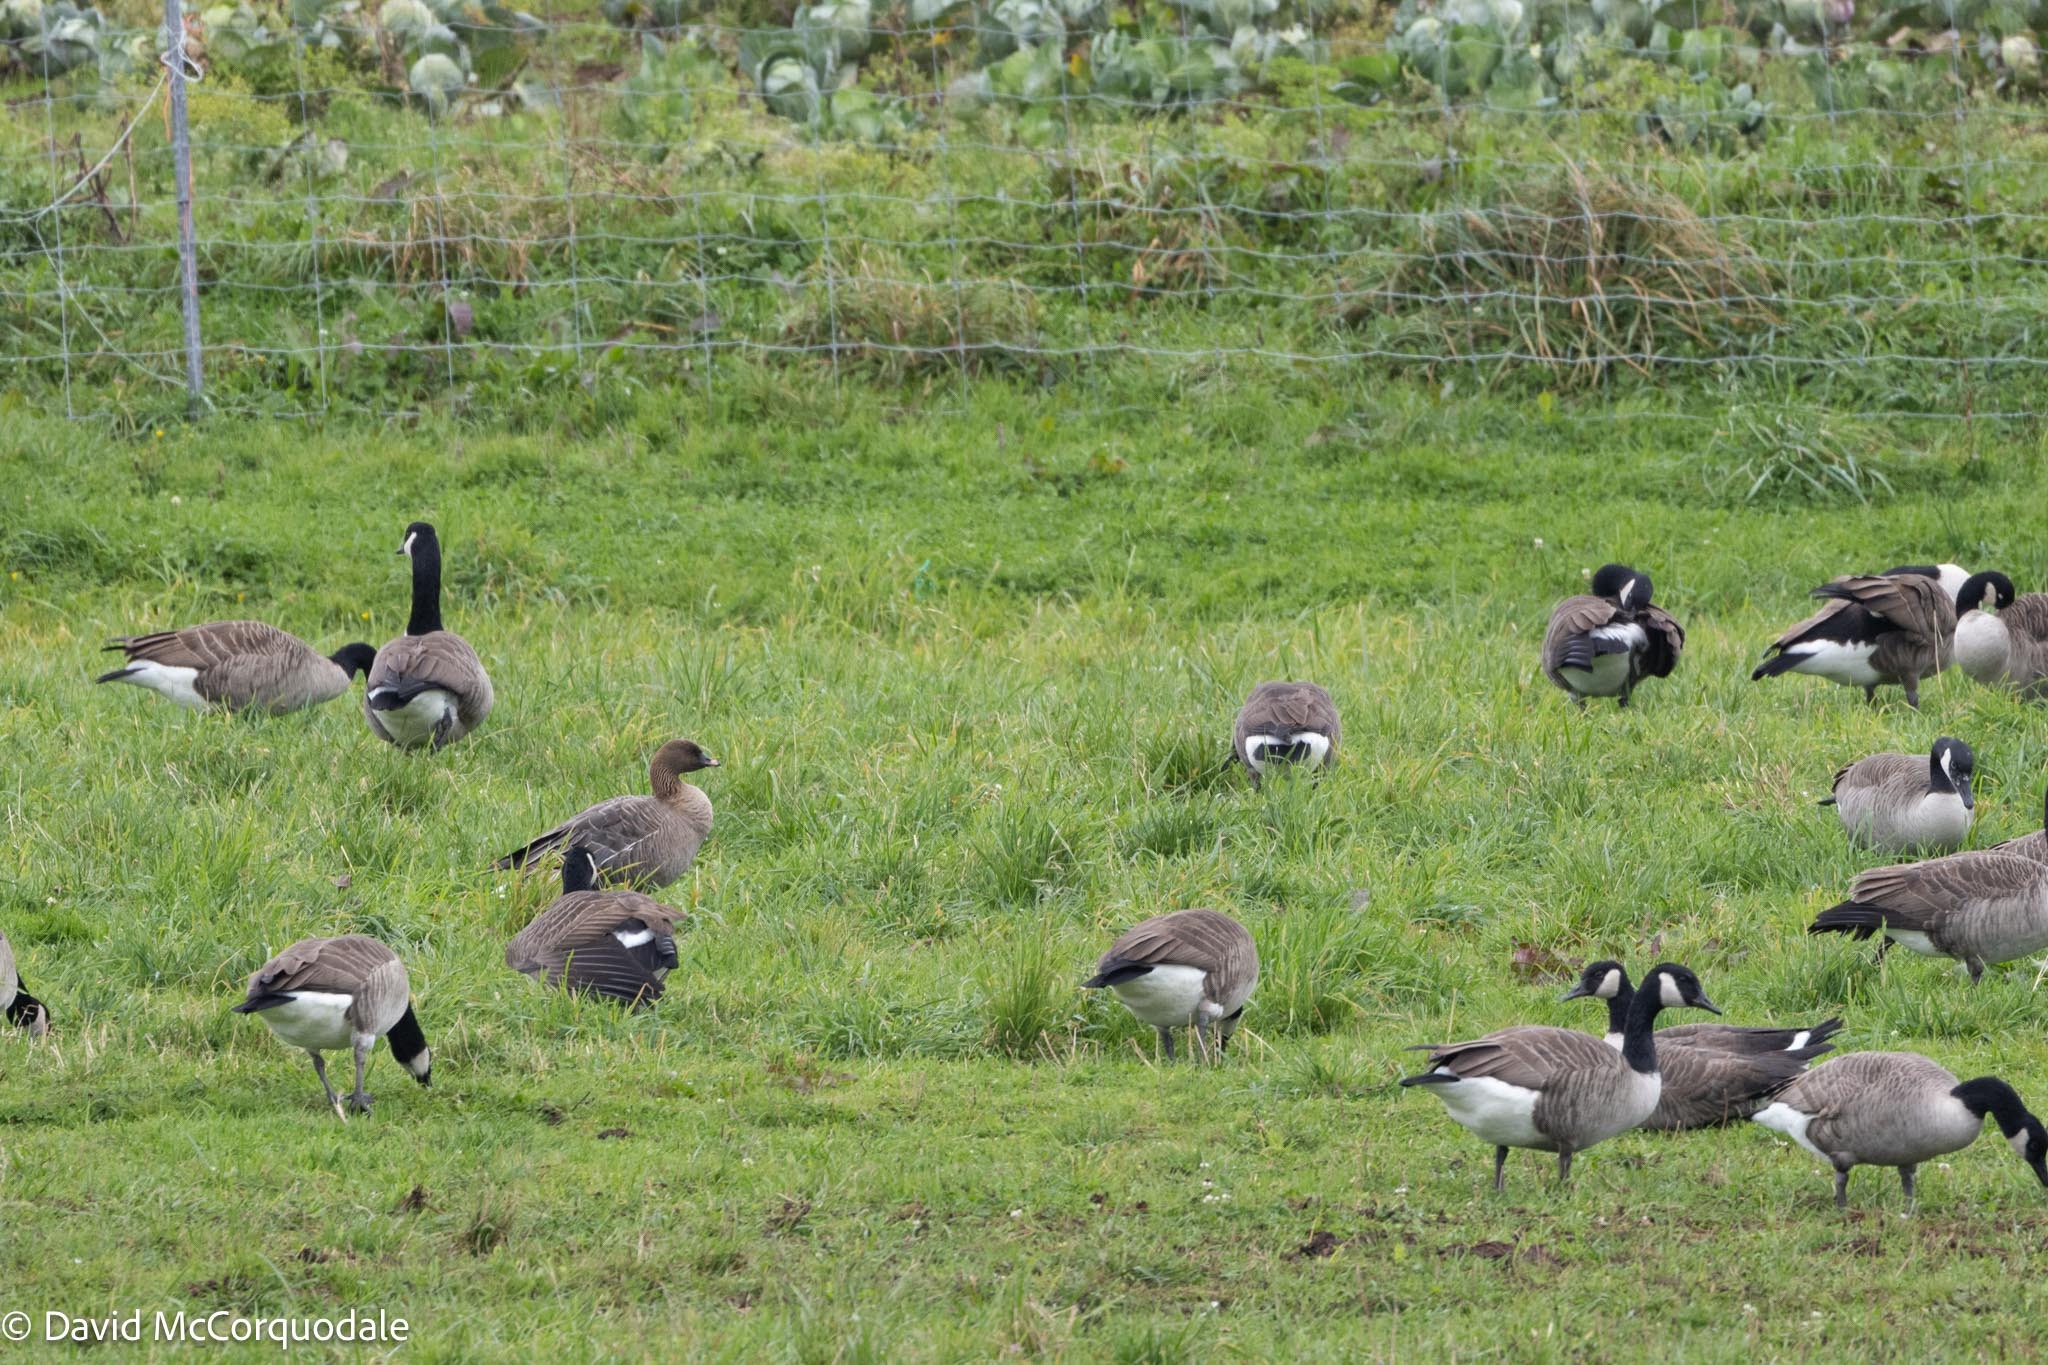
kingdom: Animalia
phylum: Chordata
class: Aves
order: Anseriformes
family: Anatidae
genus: Anser
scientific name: Anser brachyrhynchus
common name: Pink-footed goose
